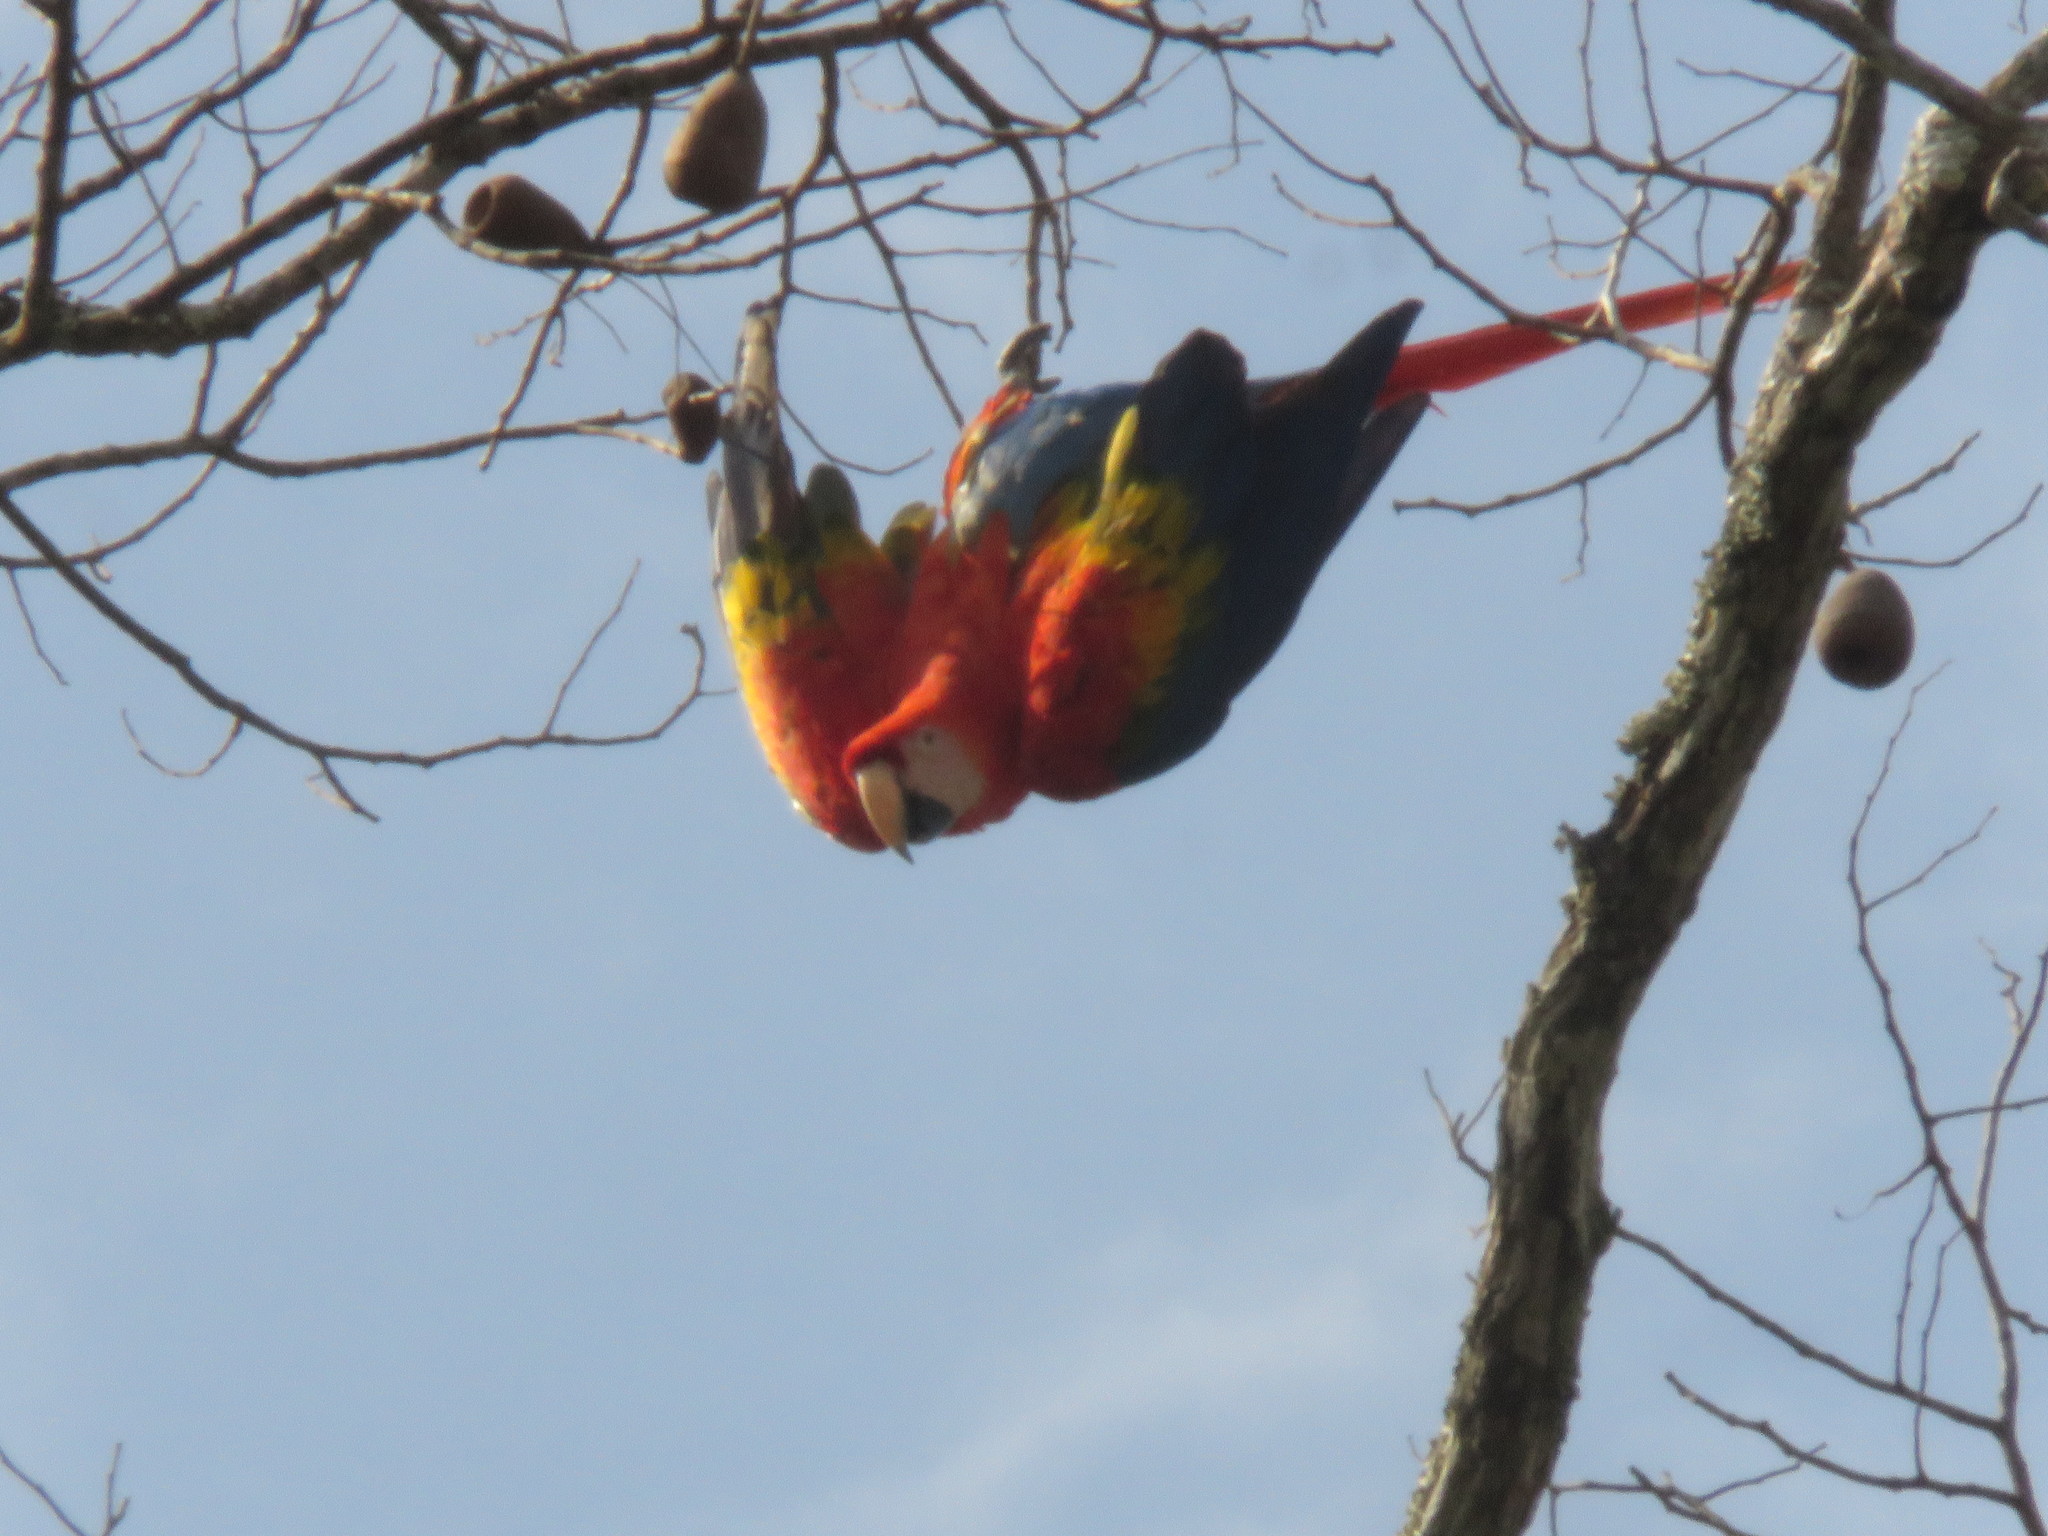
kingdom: Animalia
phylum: Chordata
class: Aves
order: Psittaciformes
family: Psittacidae
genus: Ara
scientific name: Ara macao
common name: Scarlet macaw
